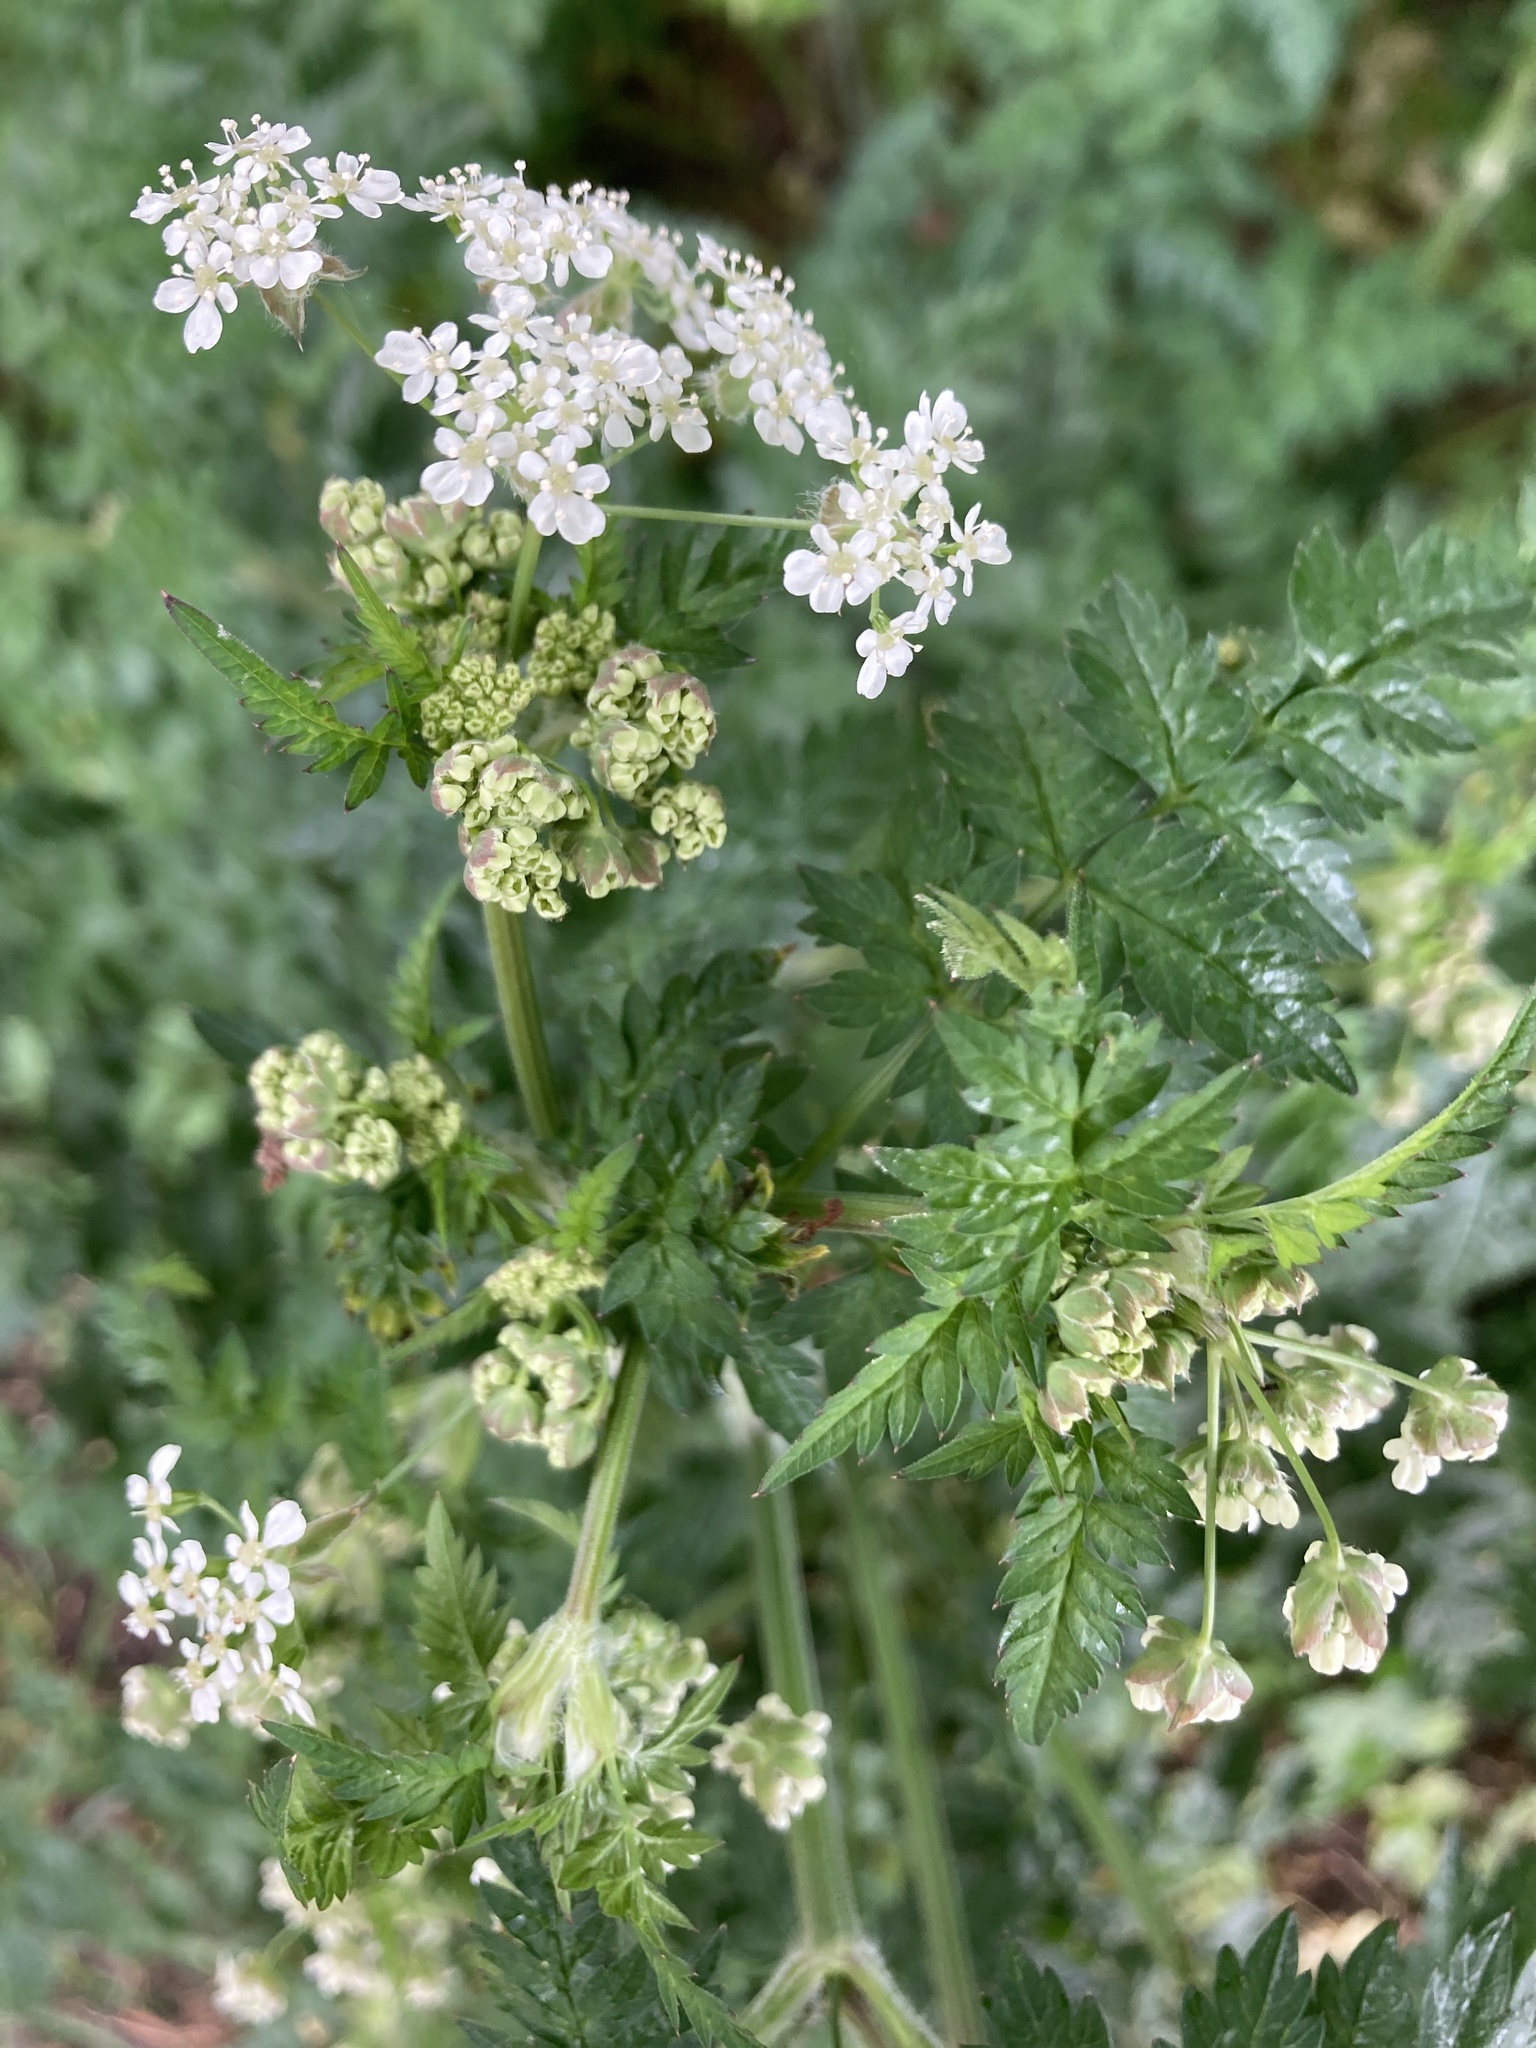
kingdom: Plantae
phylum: Tracheophyta
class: Magnoliopsida
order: Apiales
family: Apiaceae
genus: Anthriscus
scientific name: Anthriscus sylvestris
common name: Cow parsley
